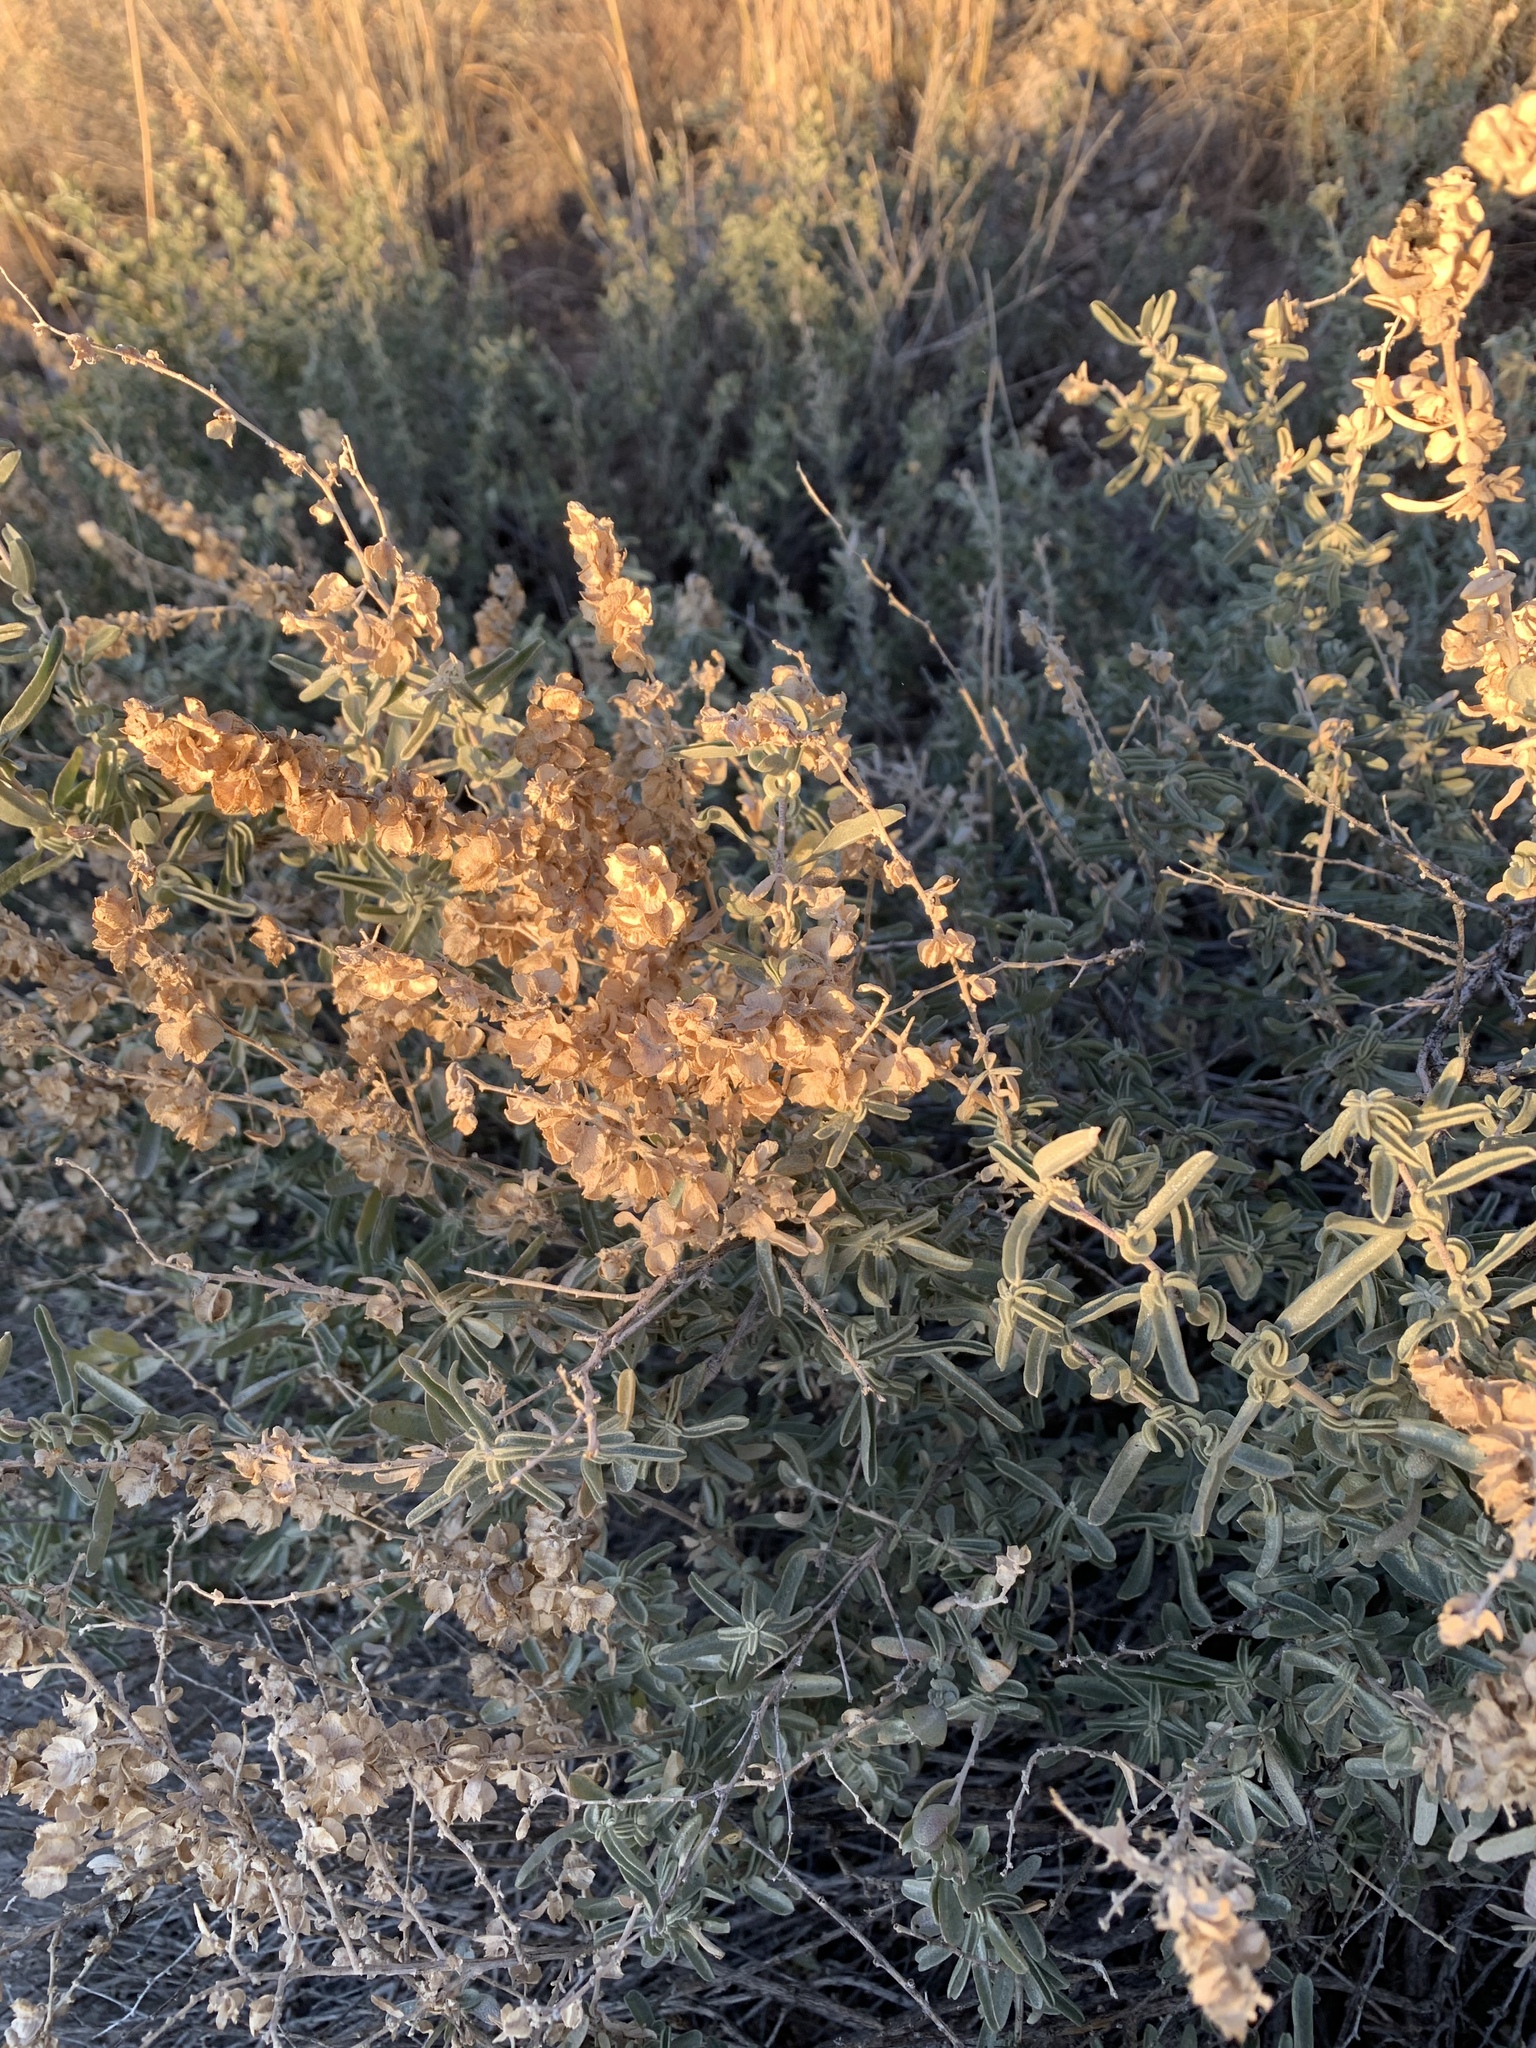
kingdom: Plantae
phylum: Tracheophyta
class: Magnoliopsida
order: Caryophyllales
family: Amaranthaceae
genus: Atriplex
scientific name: Atriplex canescens
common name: Four-wing saltbush
